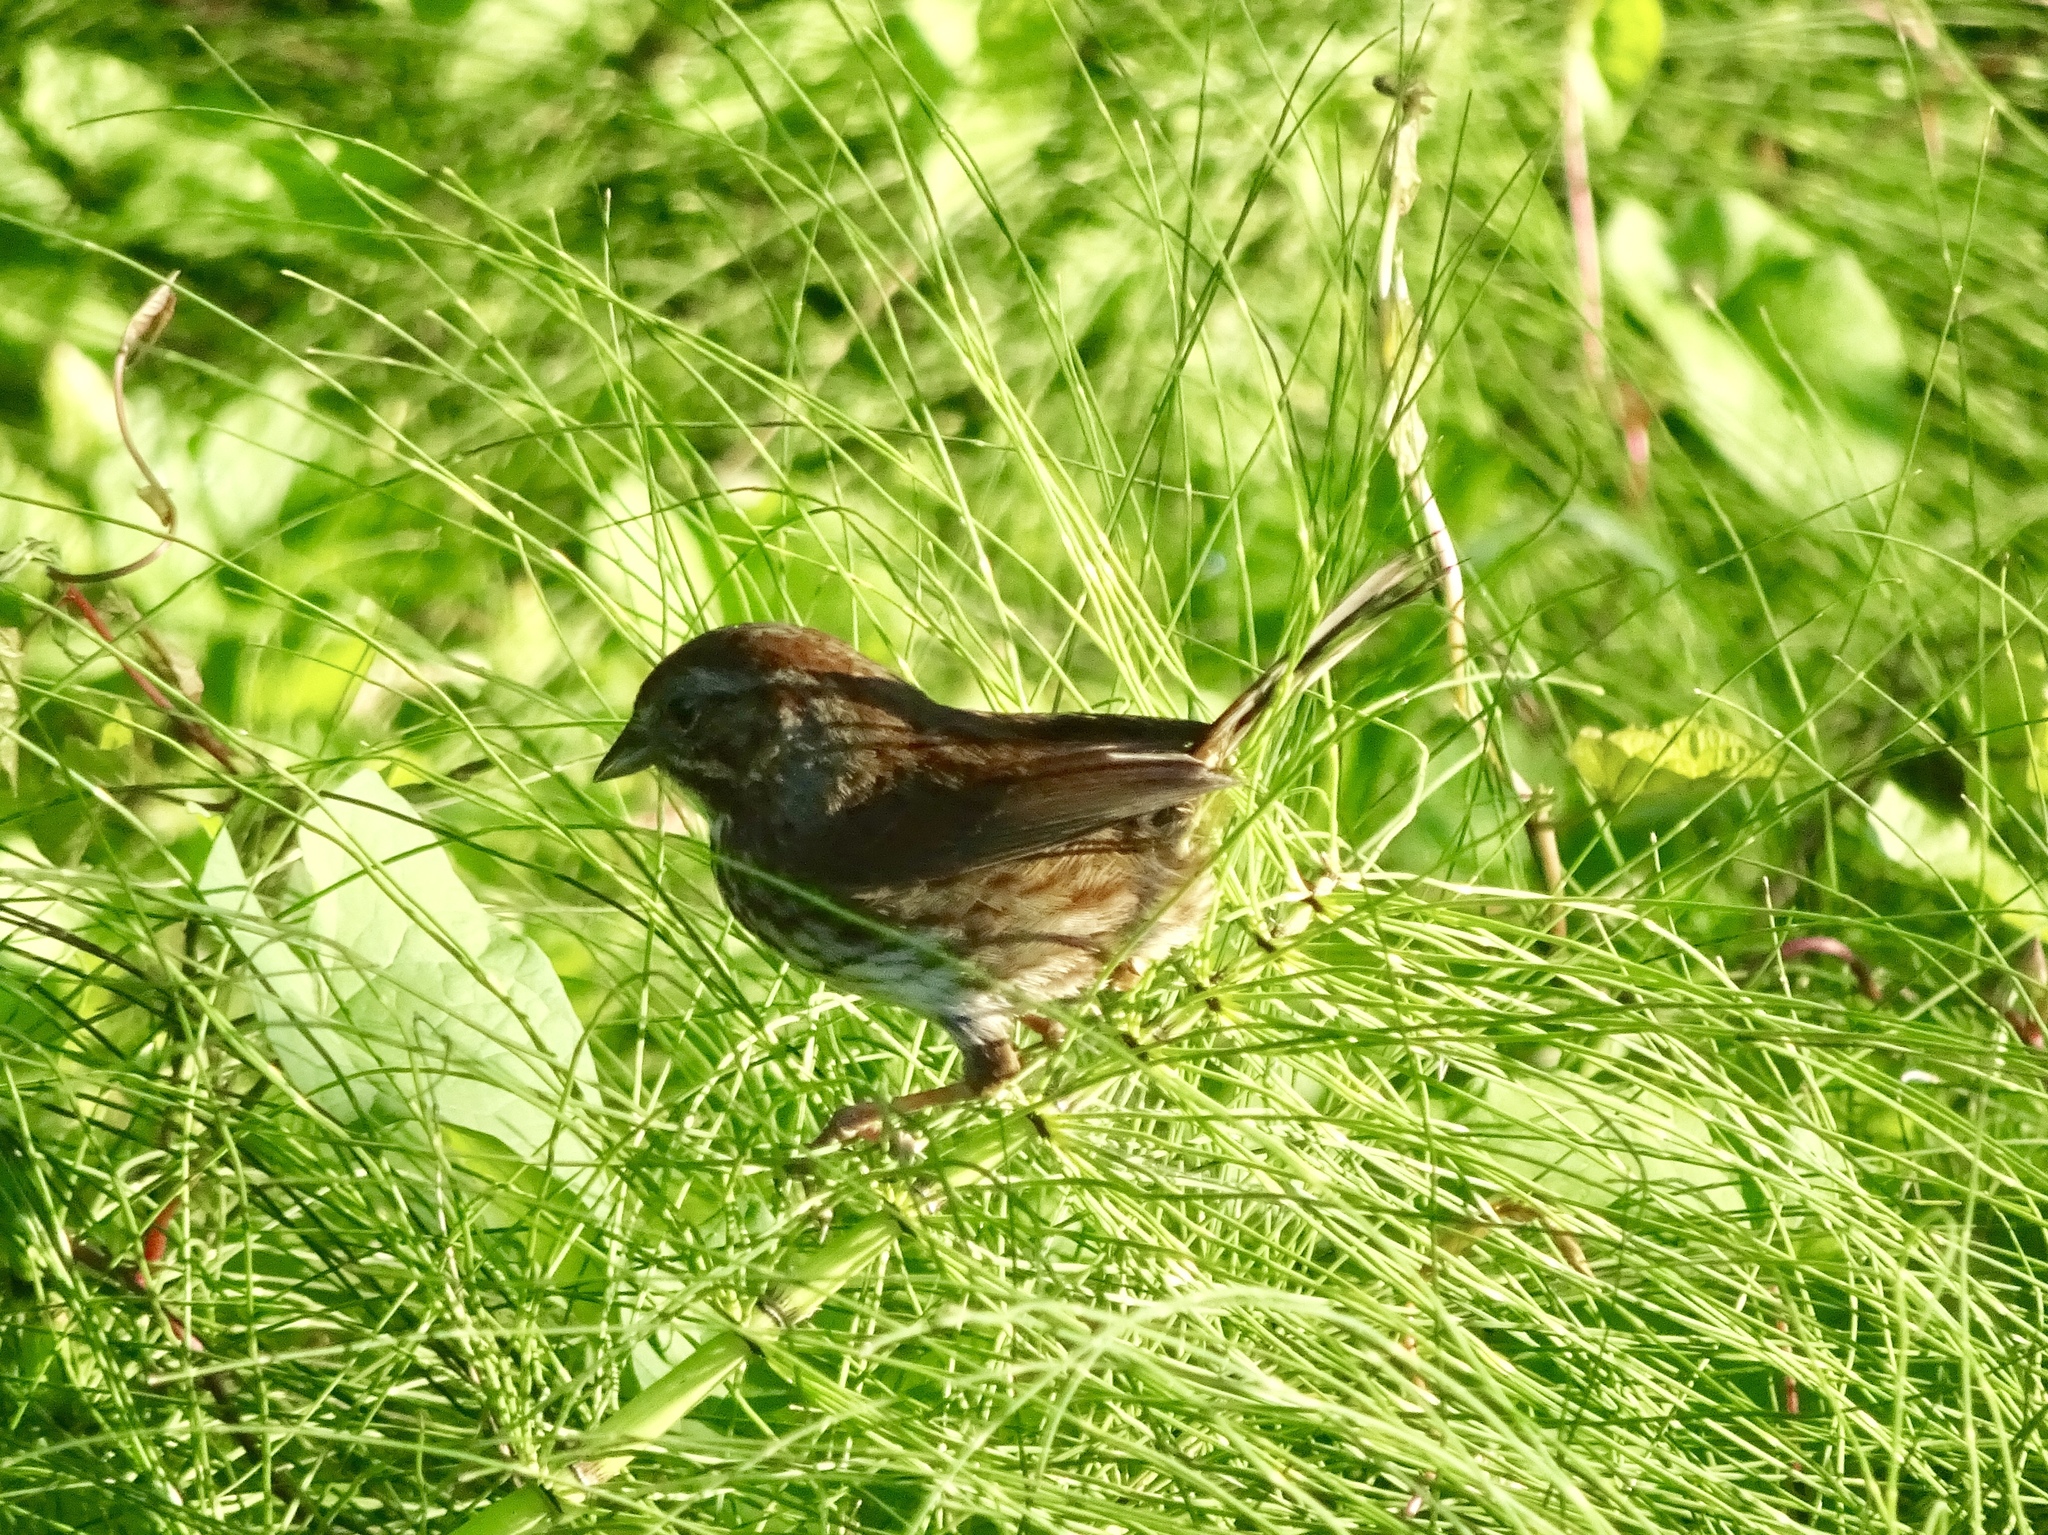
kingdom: Animalia
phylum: Chordata
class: Aves
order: Passeriformes
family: Passerellidae
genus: Melospiza
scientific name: Melospiza melodia
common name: Song sparrow
